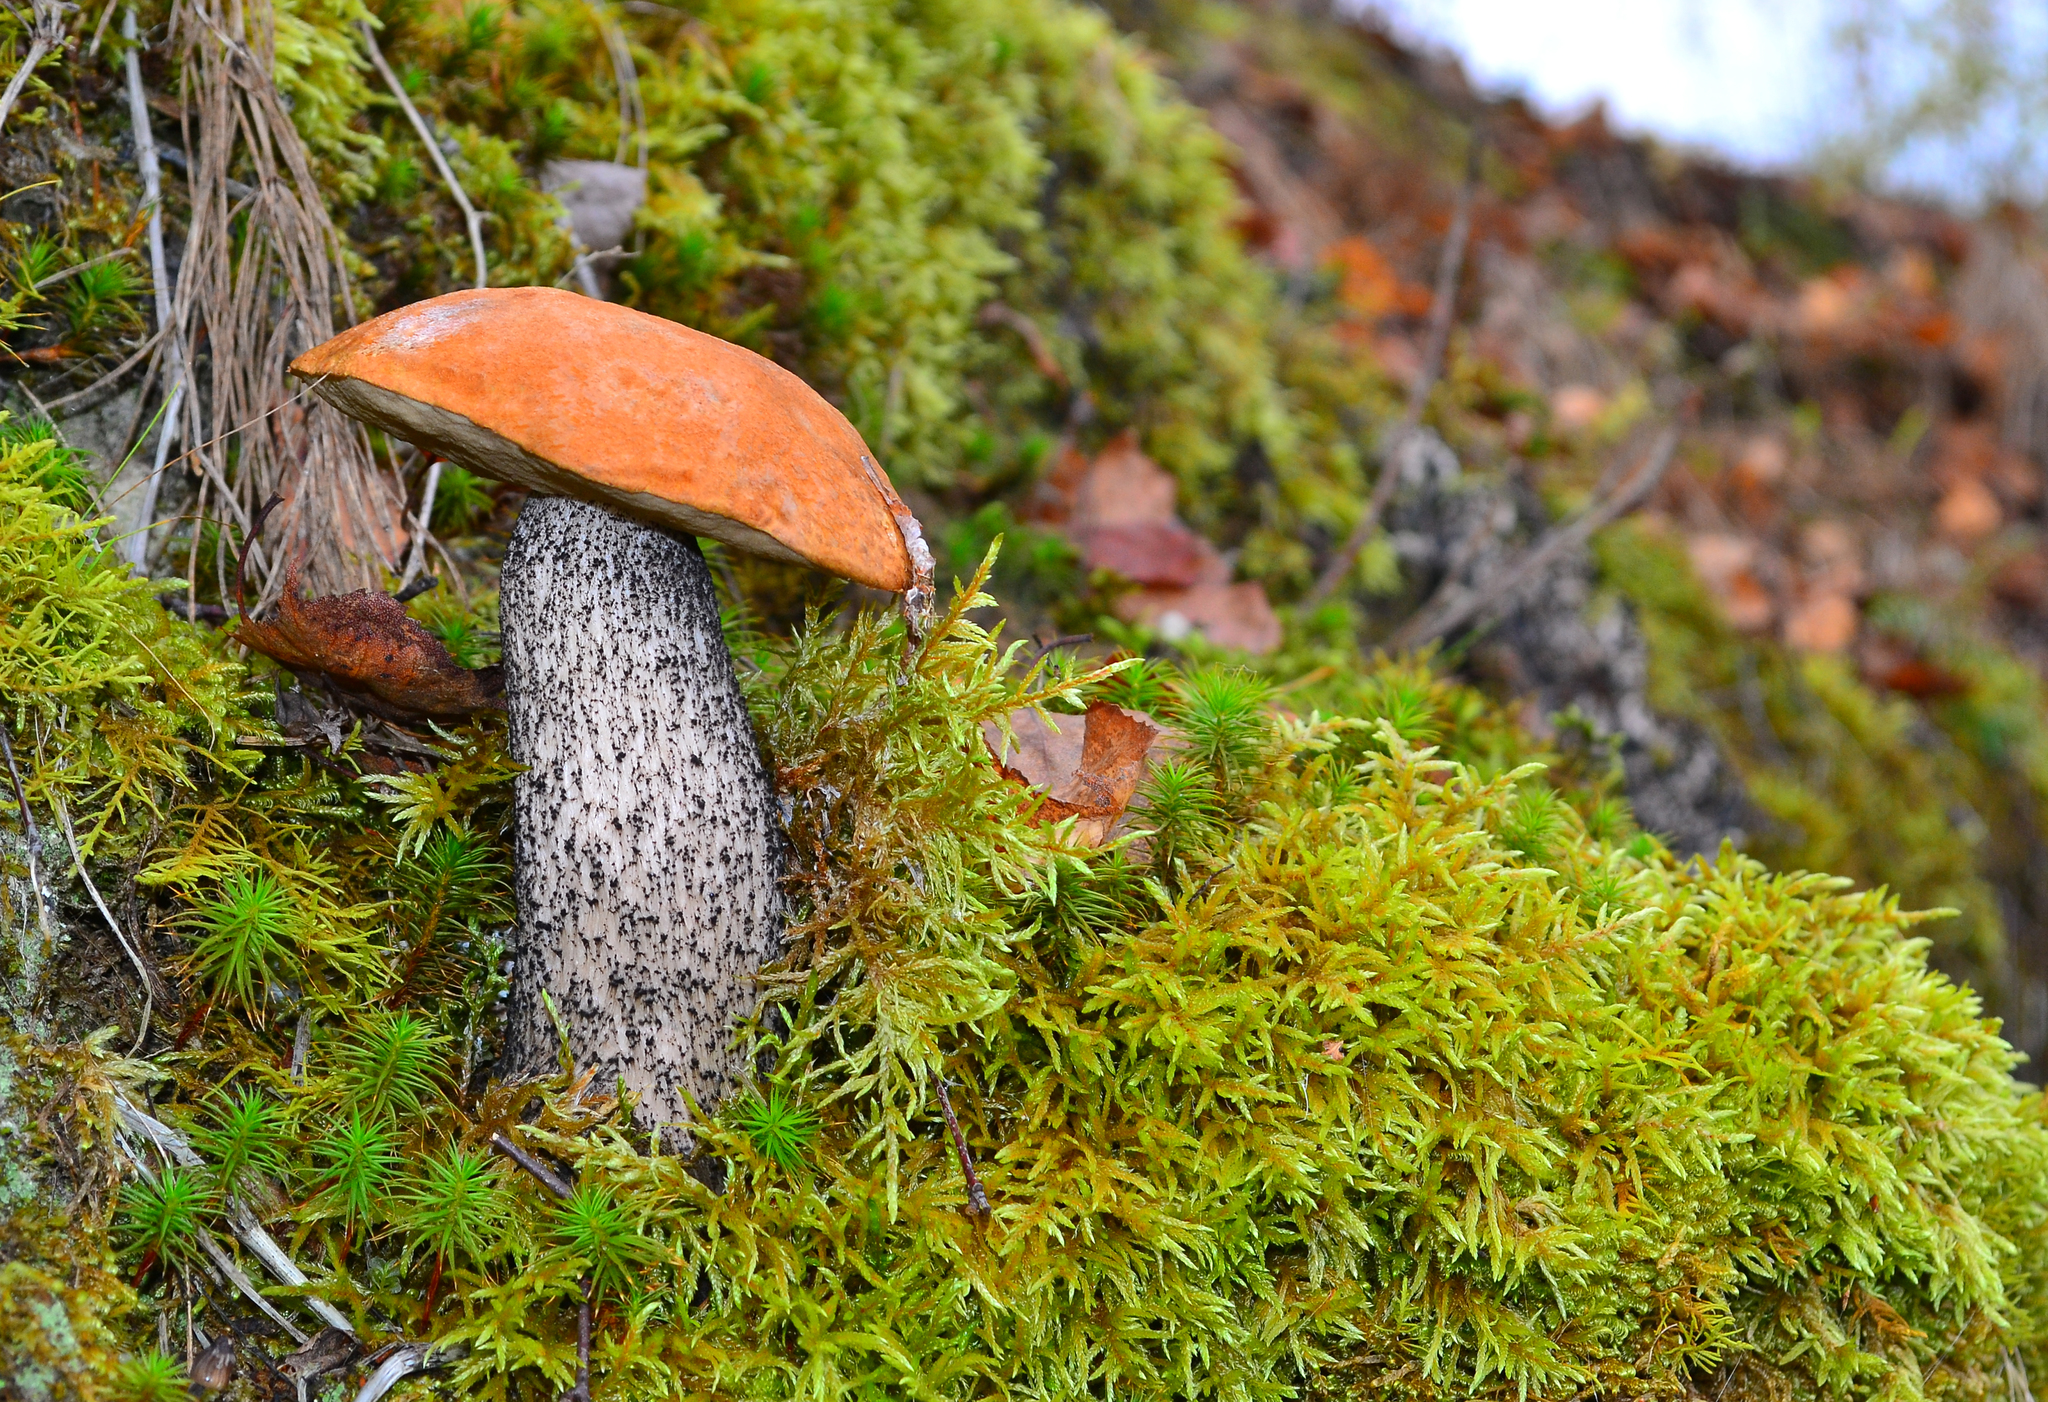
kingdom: Fungi
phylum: Basidiomycota
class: Agaricomycetes
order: Boletales
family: Boletaceae
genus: Leccinum
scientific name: Leccinum versipelle
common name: Orange birch bolete
